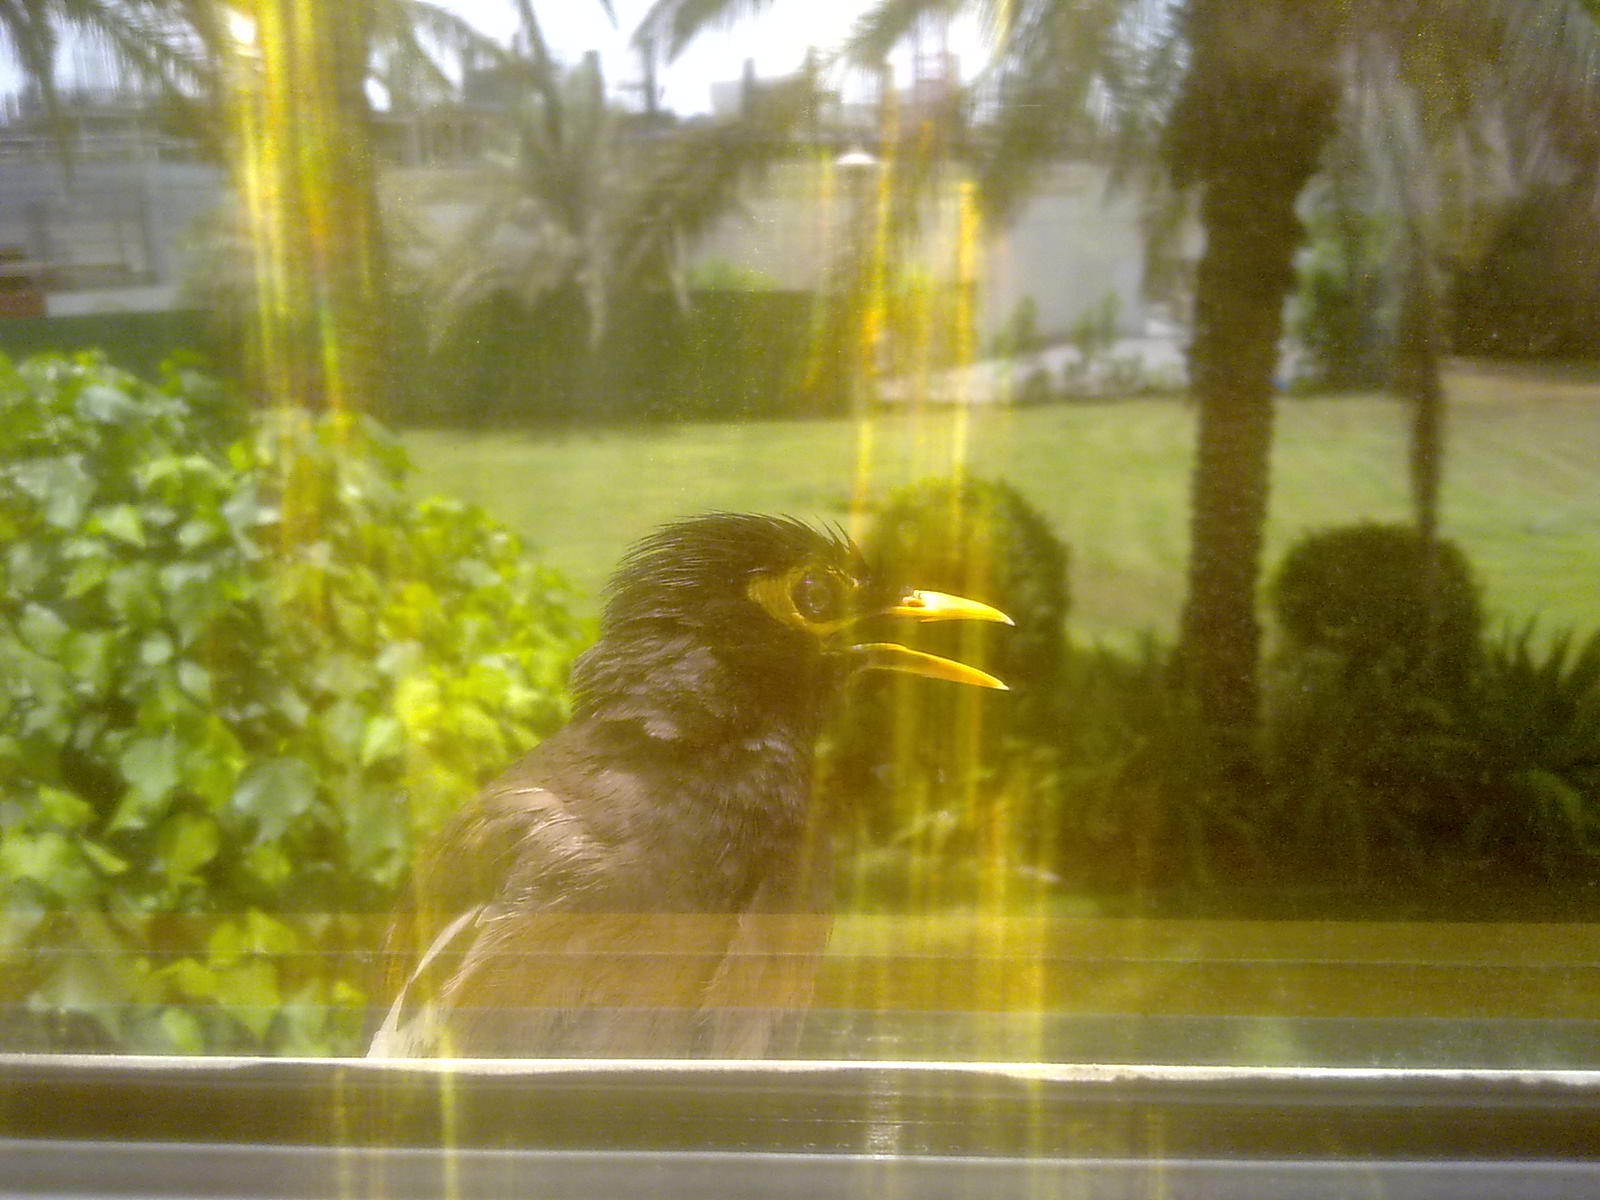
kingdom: Animalia
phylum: Chordata
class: Aves
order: Passeriformes
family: Sturnidae
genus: Acridotheres
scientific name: Acridotheres tristis
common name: Common myna
